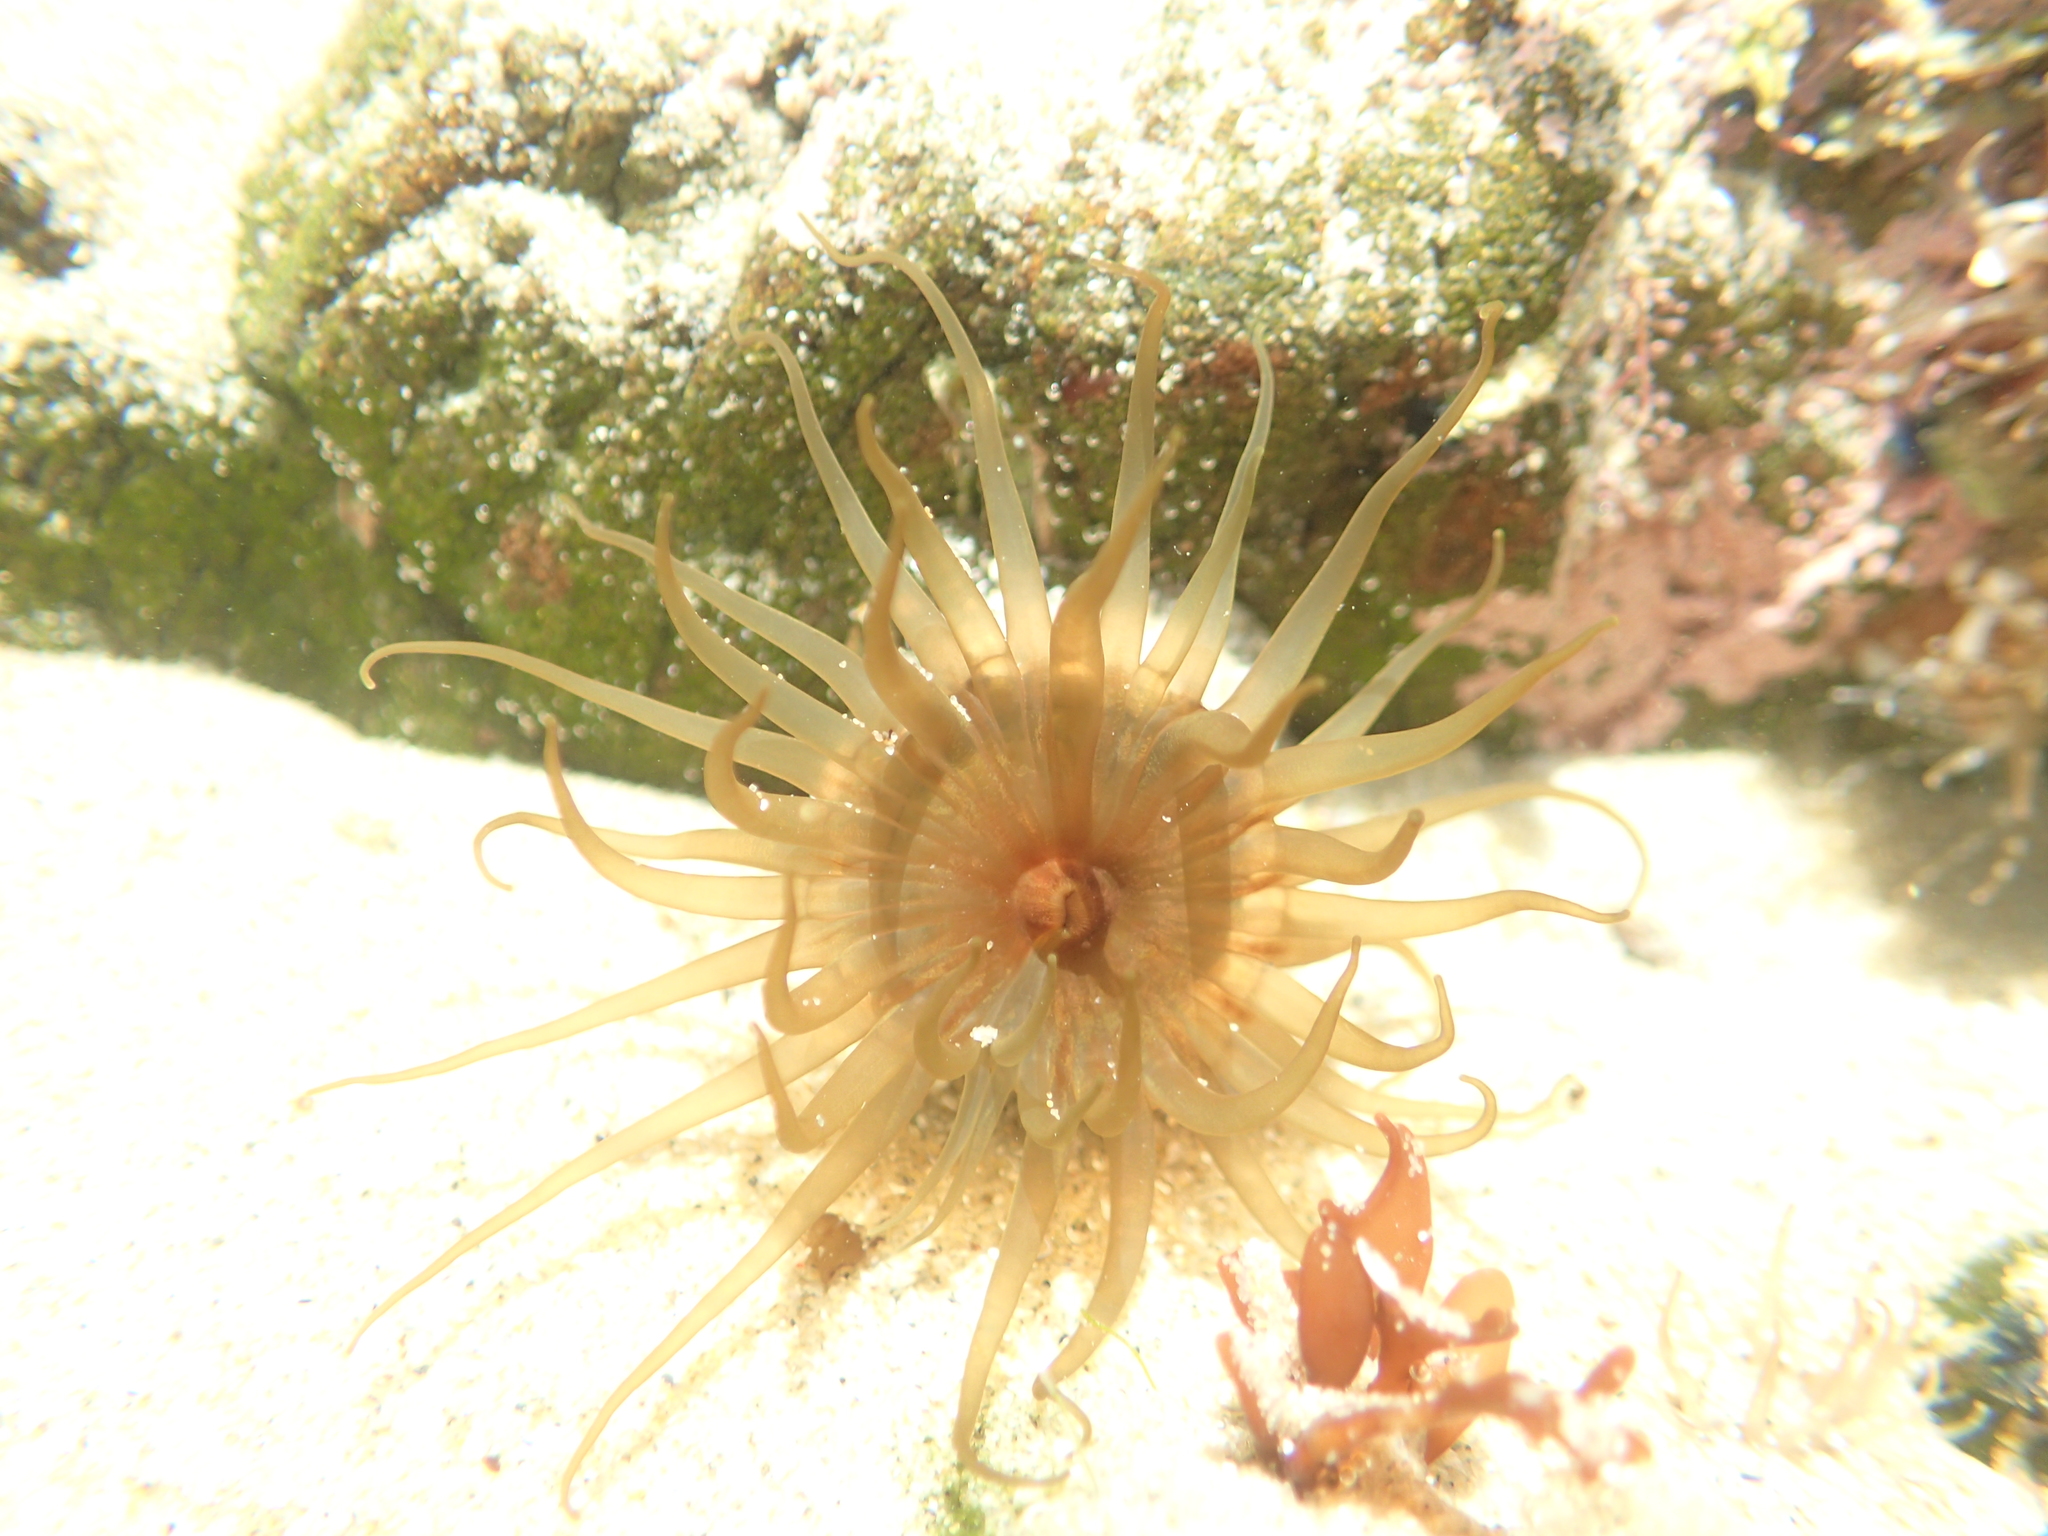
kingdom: Animalia
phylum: Cnidaria
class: Anthozoa
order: Actiniaria
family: Actiniidae
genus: Isactinia
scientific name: Isactinia olivacea
